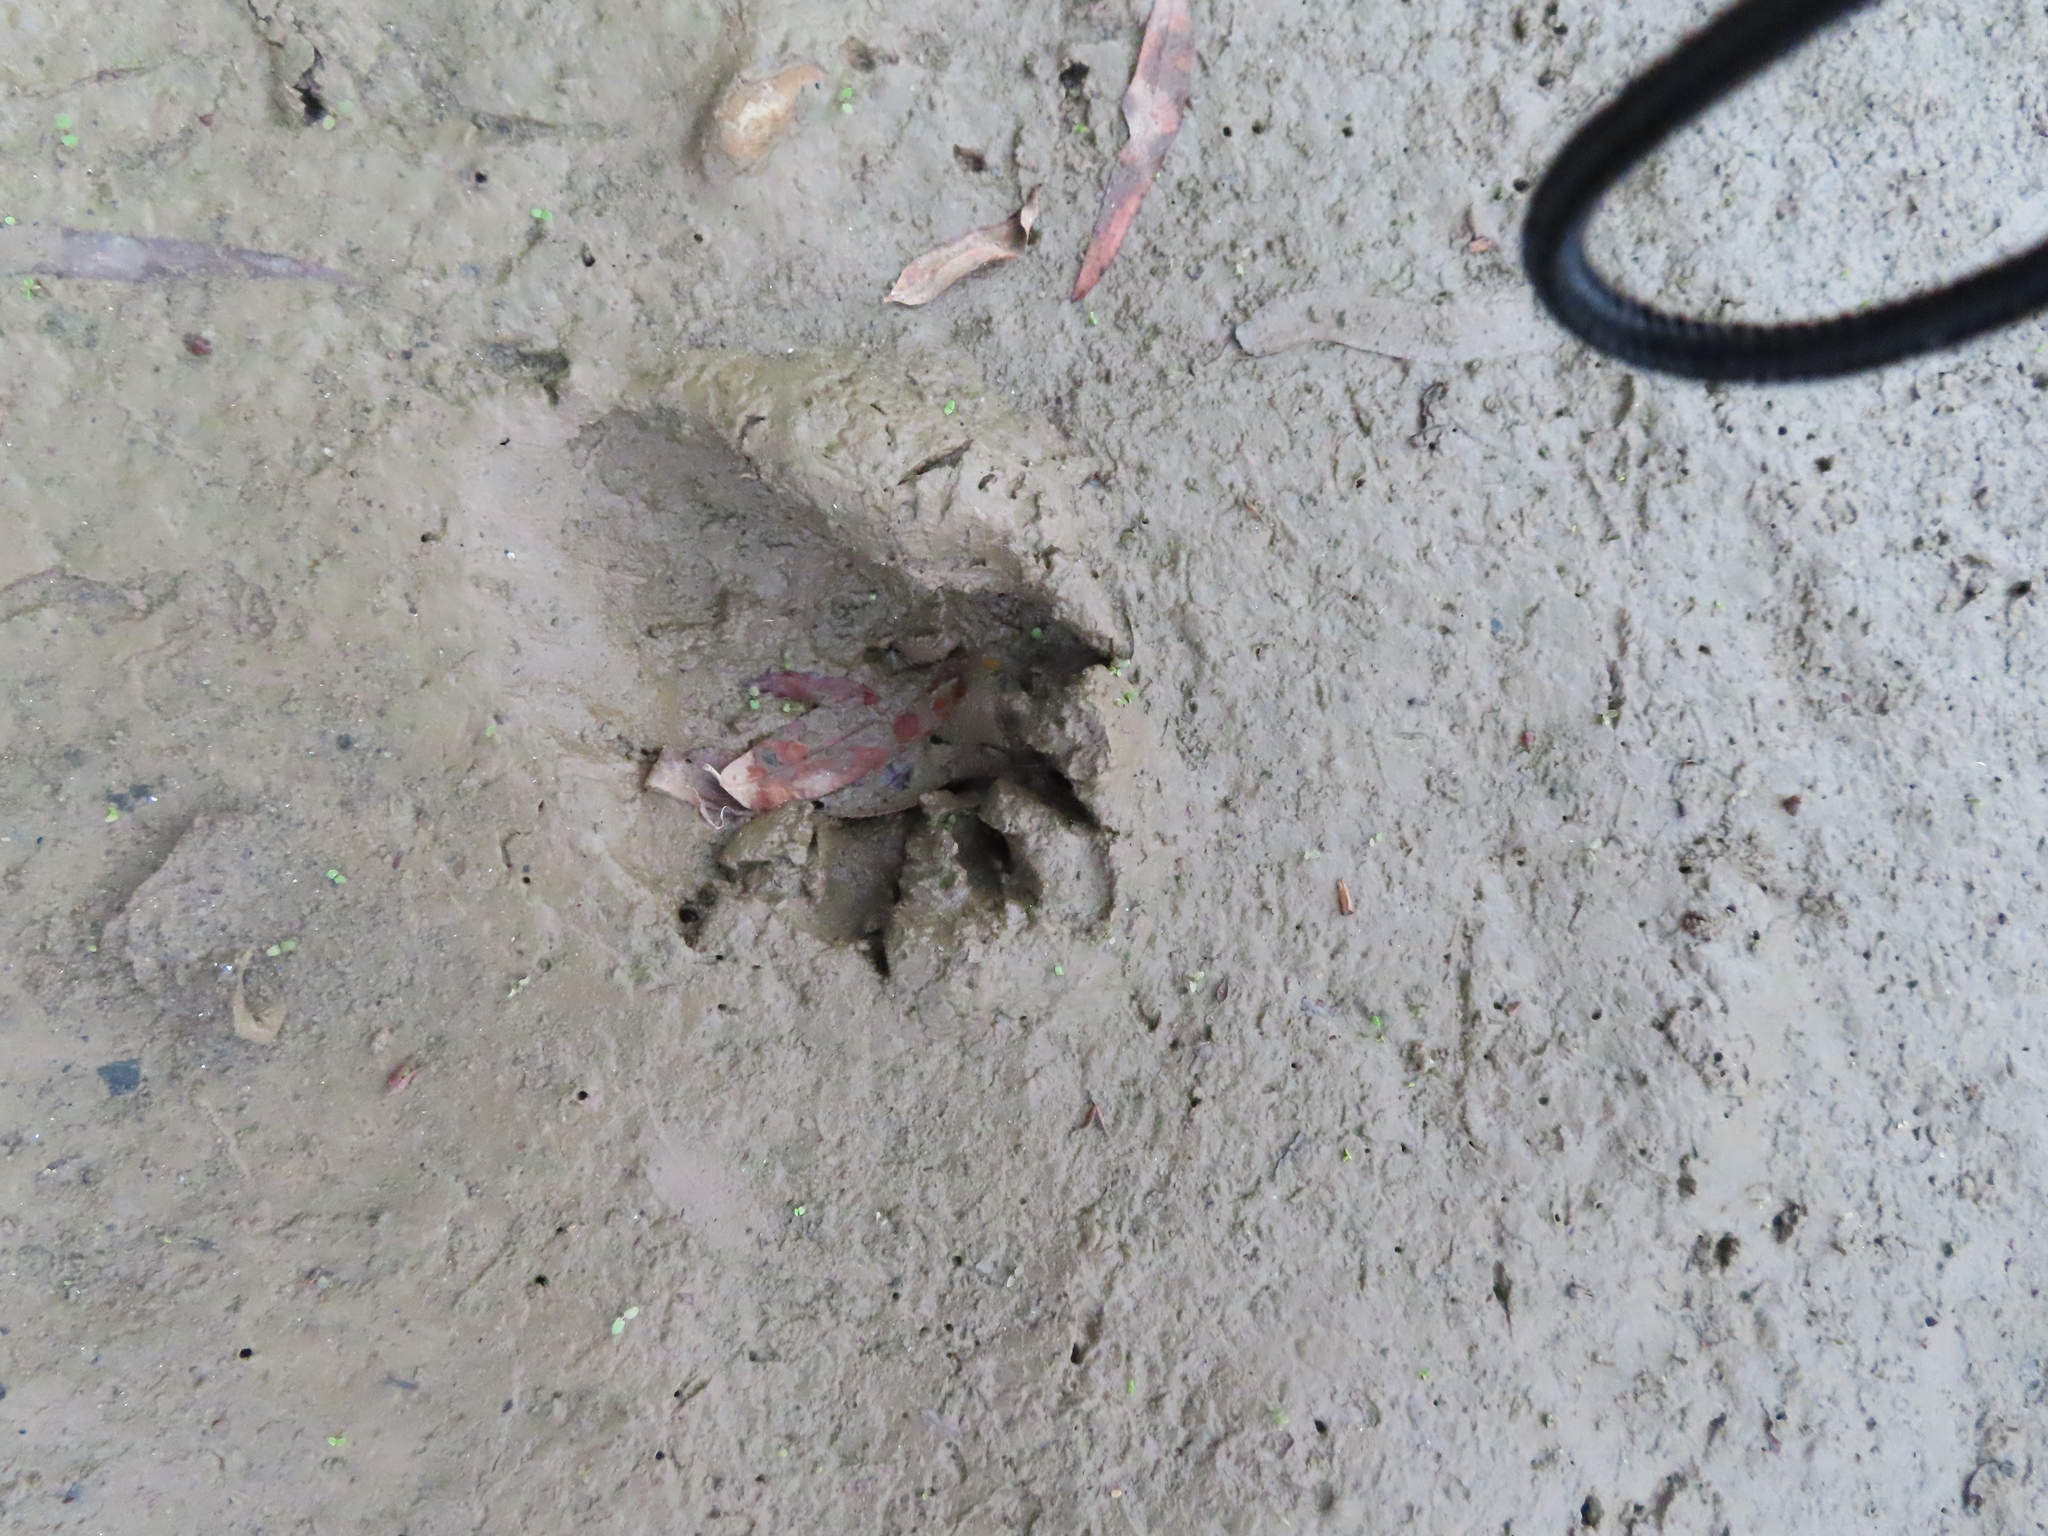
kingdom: Animalia
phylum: Chordata
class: Mammalia
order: Carnivora
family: Procyonidae
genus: Procyon
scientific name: Procyon lotor
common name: Raccoon
